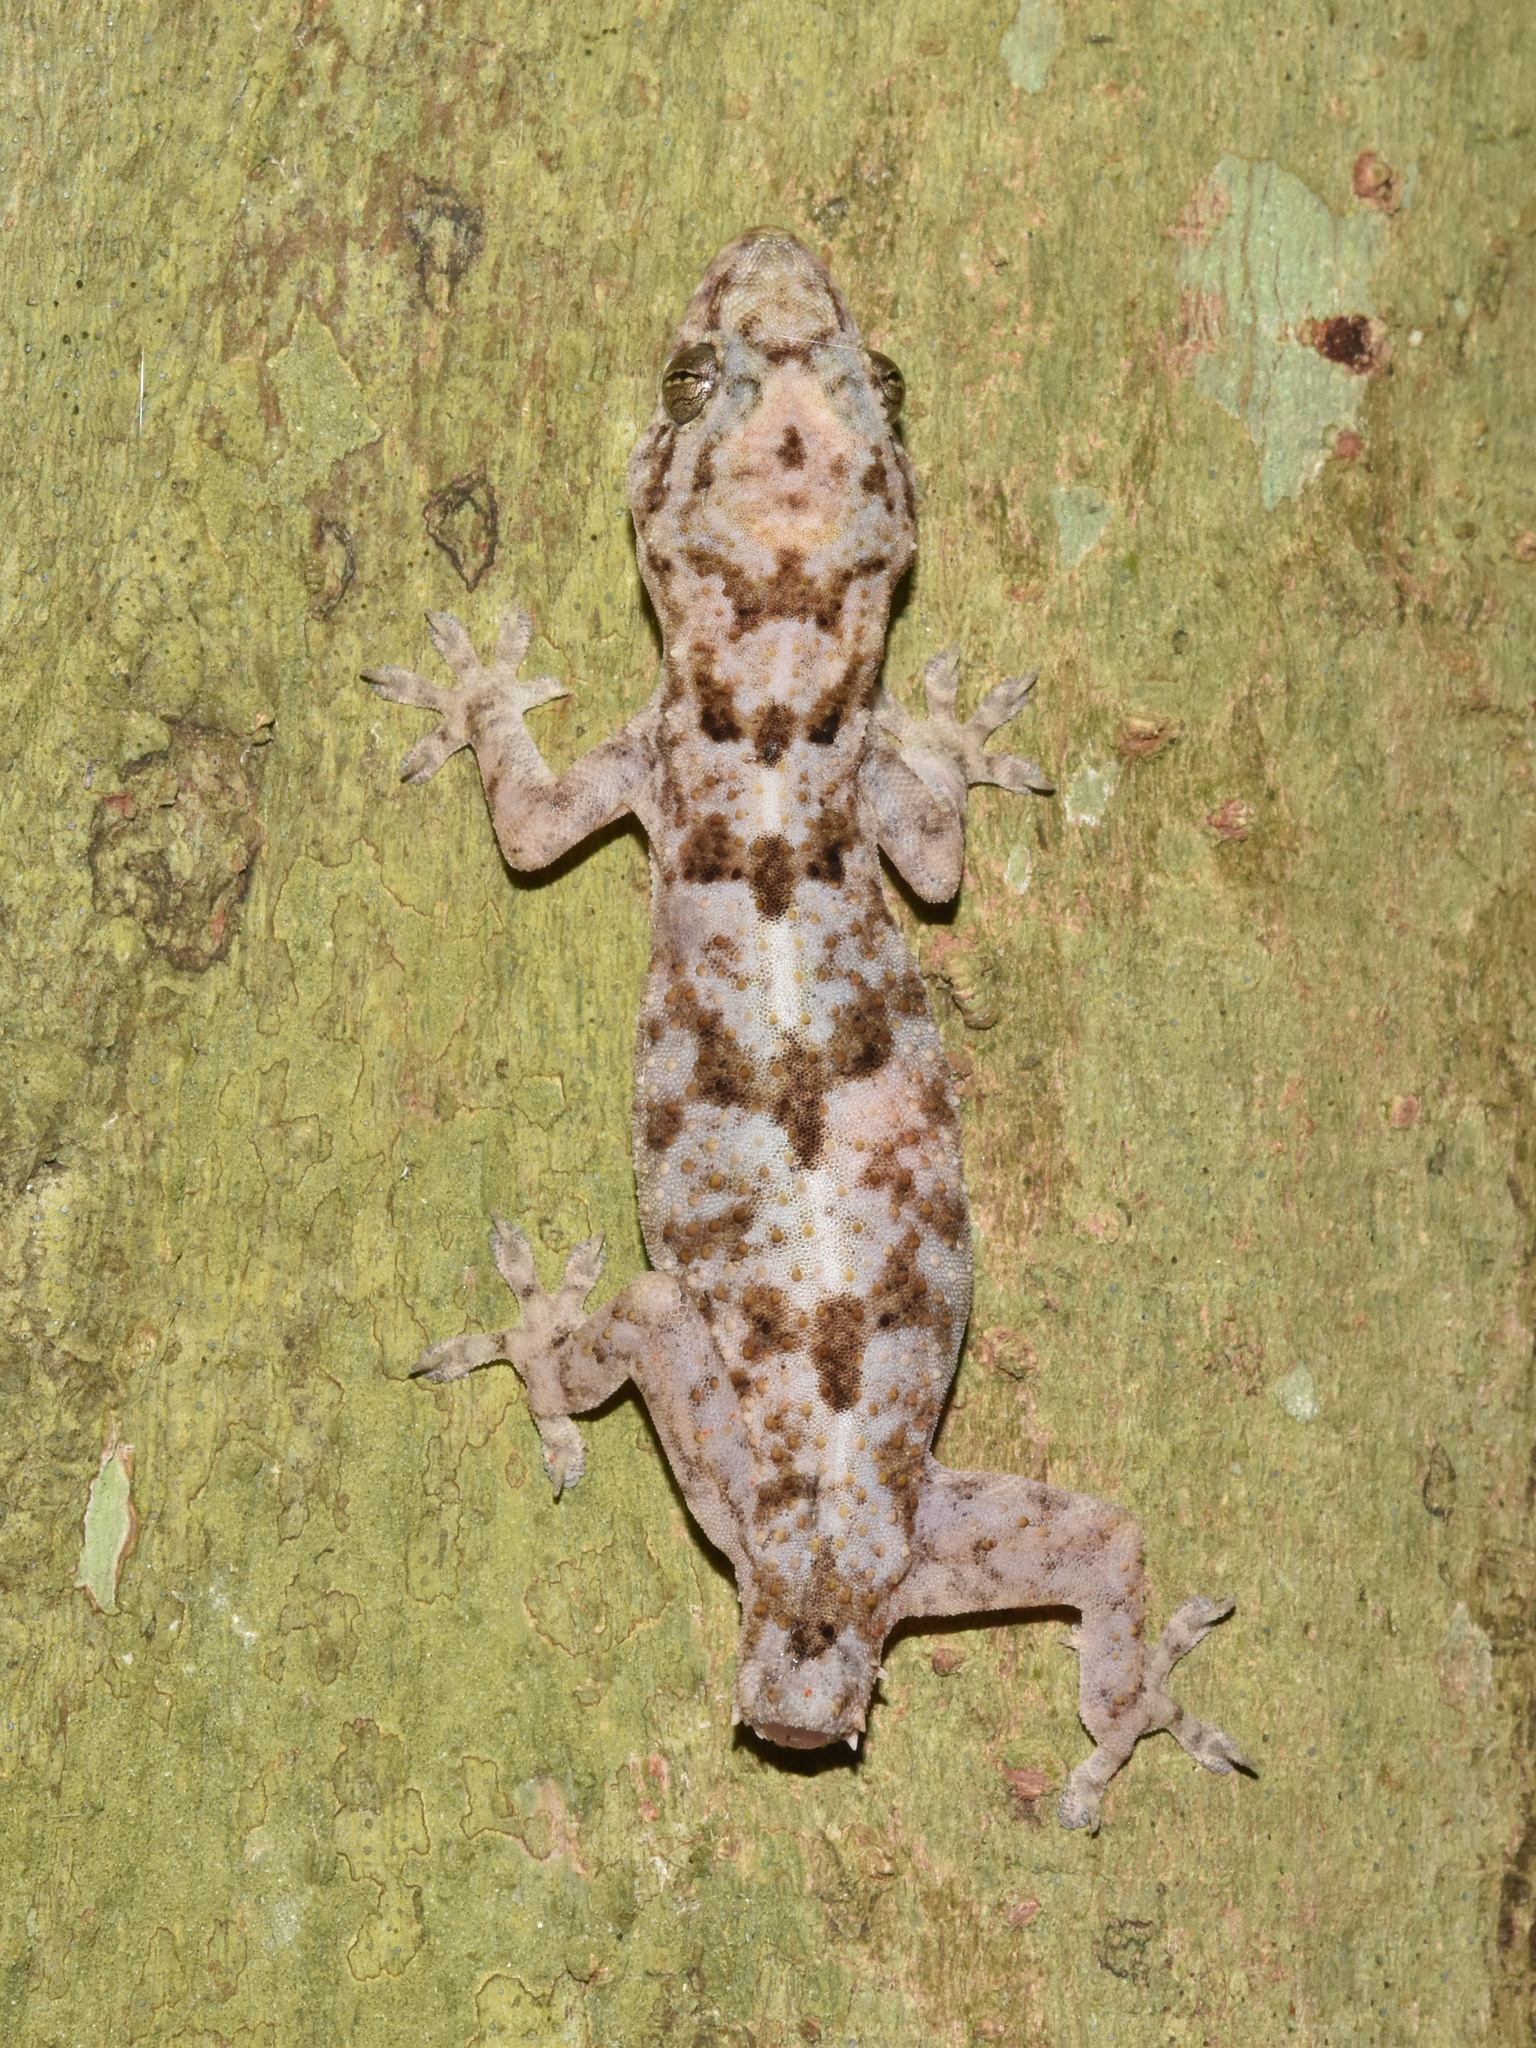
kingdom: Animalia
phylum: Chordata
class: Squamata
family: Gekkonidae
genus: Hemidactylus
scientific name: Hemidactylus mabouia
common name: House gecko
